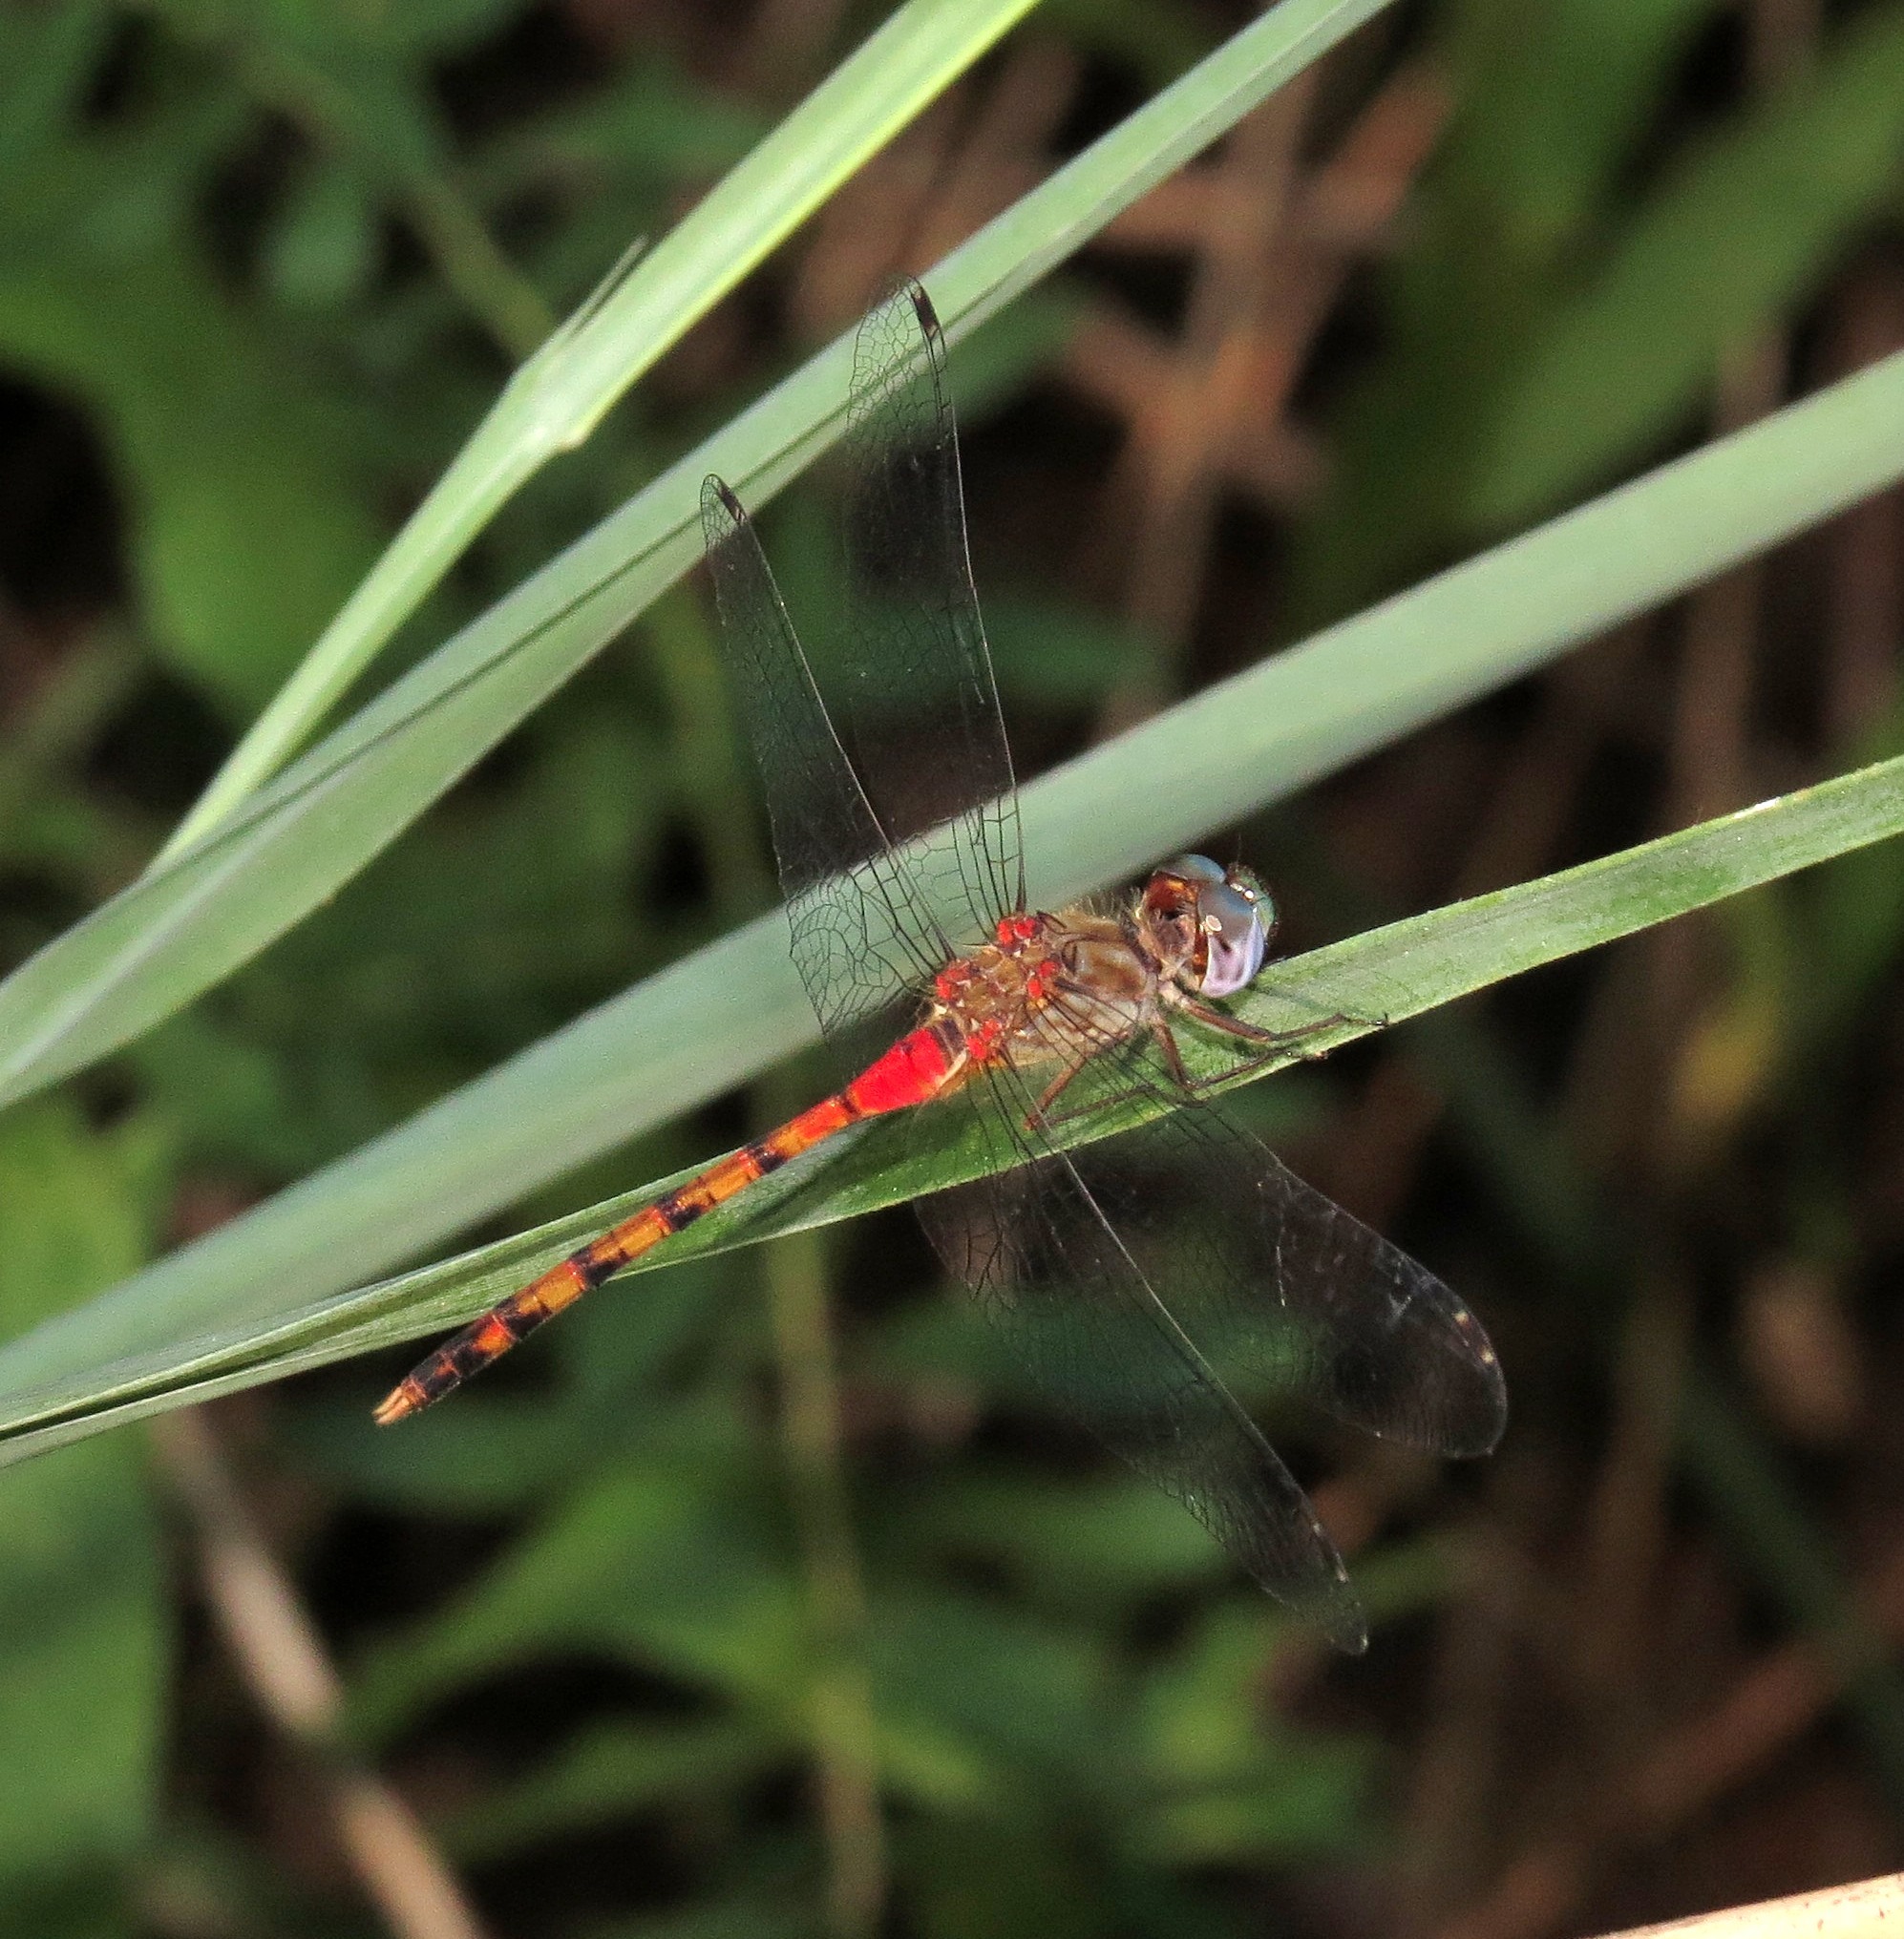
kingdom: Animalia
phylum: Arthropoda
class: Insecta
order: Odonata
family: Libellulidae
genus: Sympetrum
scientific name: Sympetrum ambiguum
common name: Blue-faced meadowhawk
